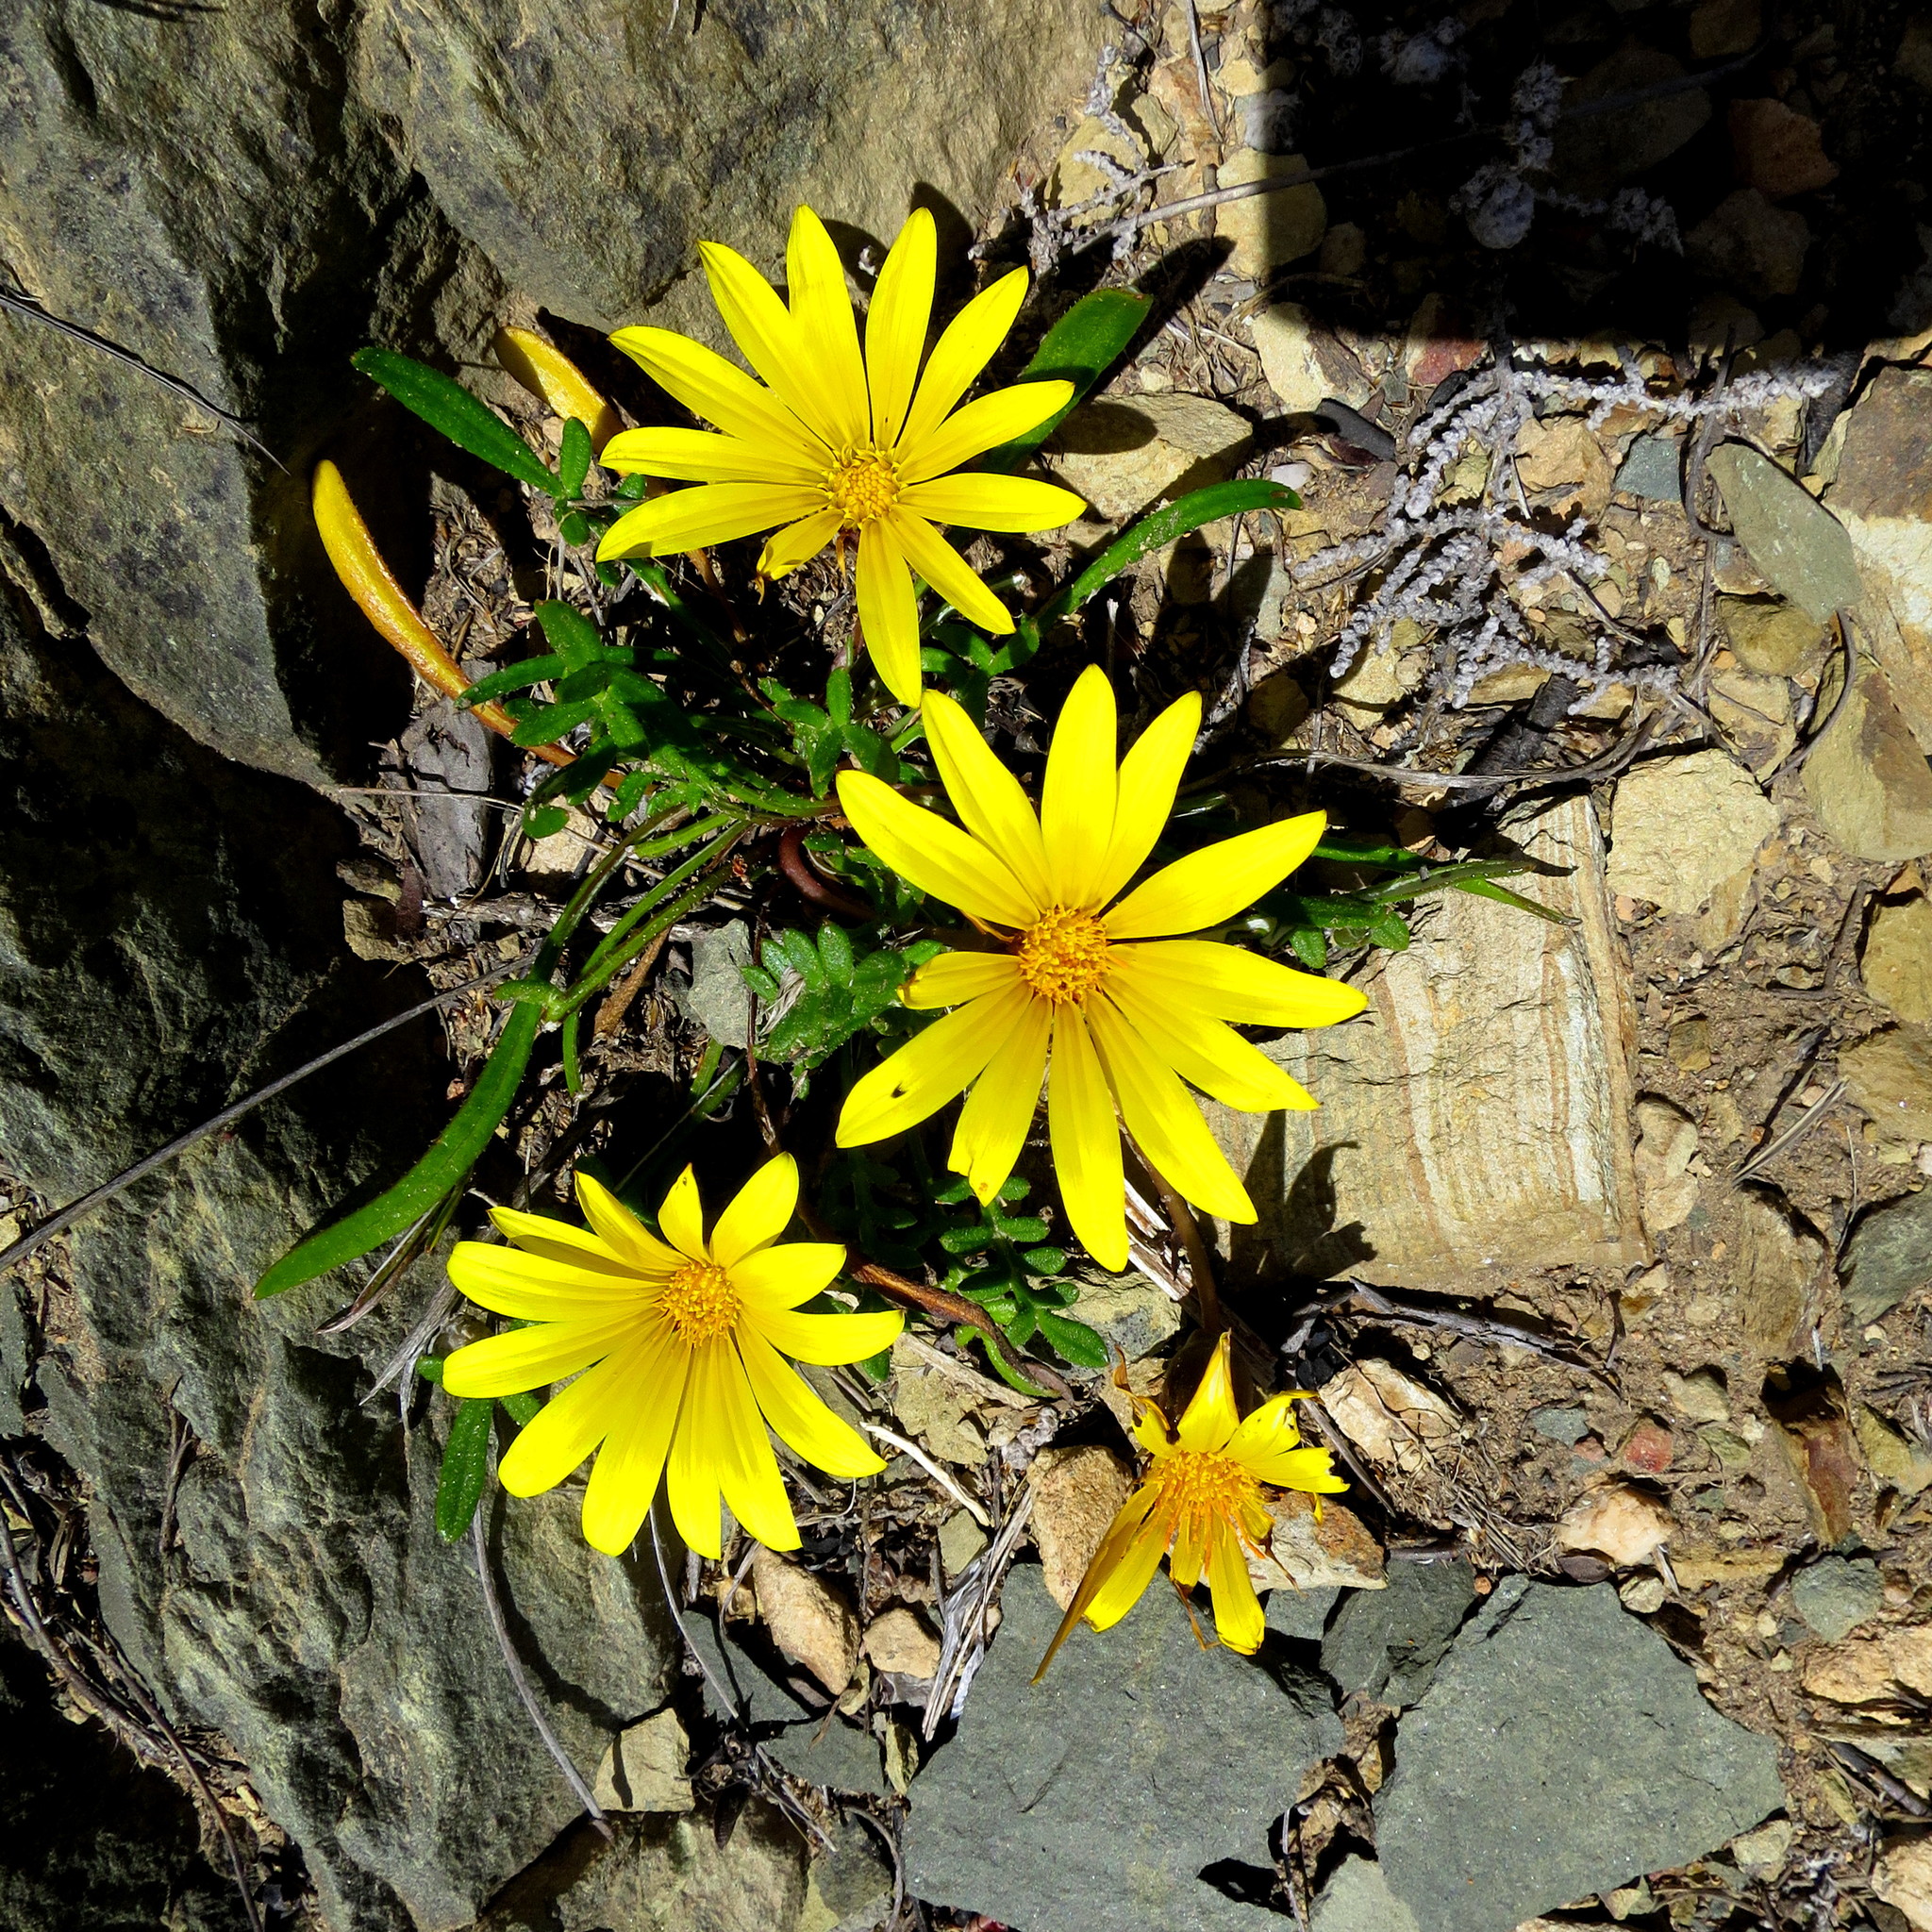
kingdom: Plantae
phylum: Tracheophyta
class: Magnoliopsida
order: Asterales
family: Asteraceae
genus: Gazania
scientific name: Gazania krebsiana
